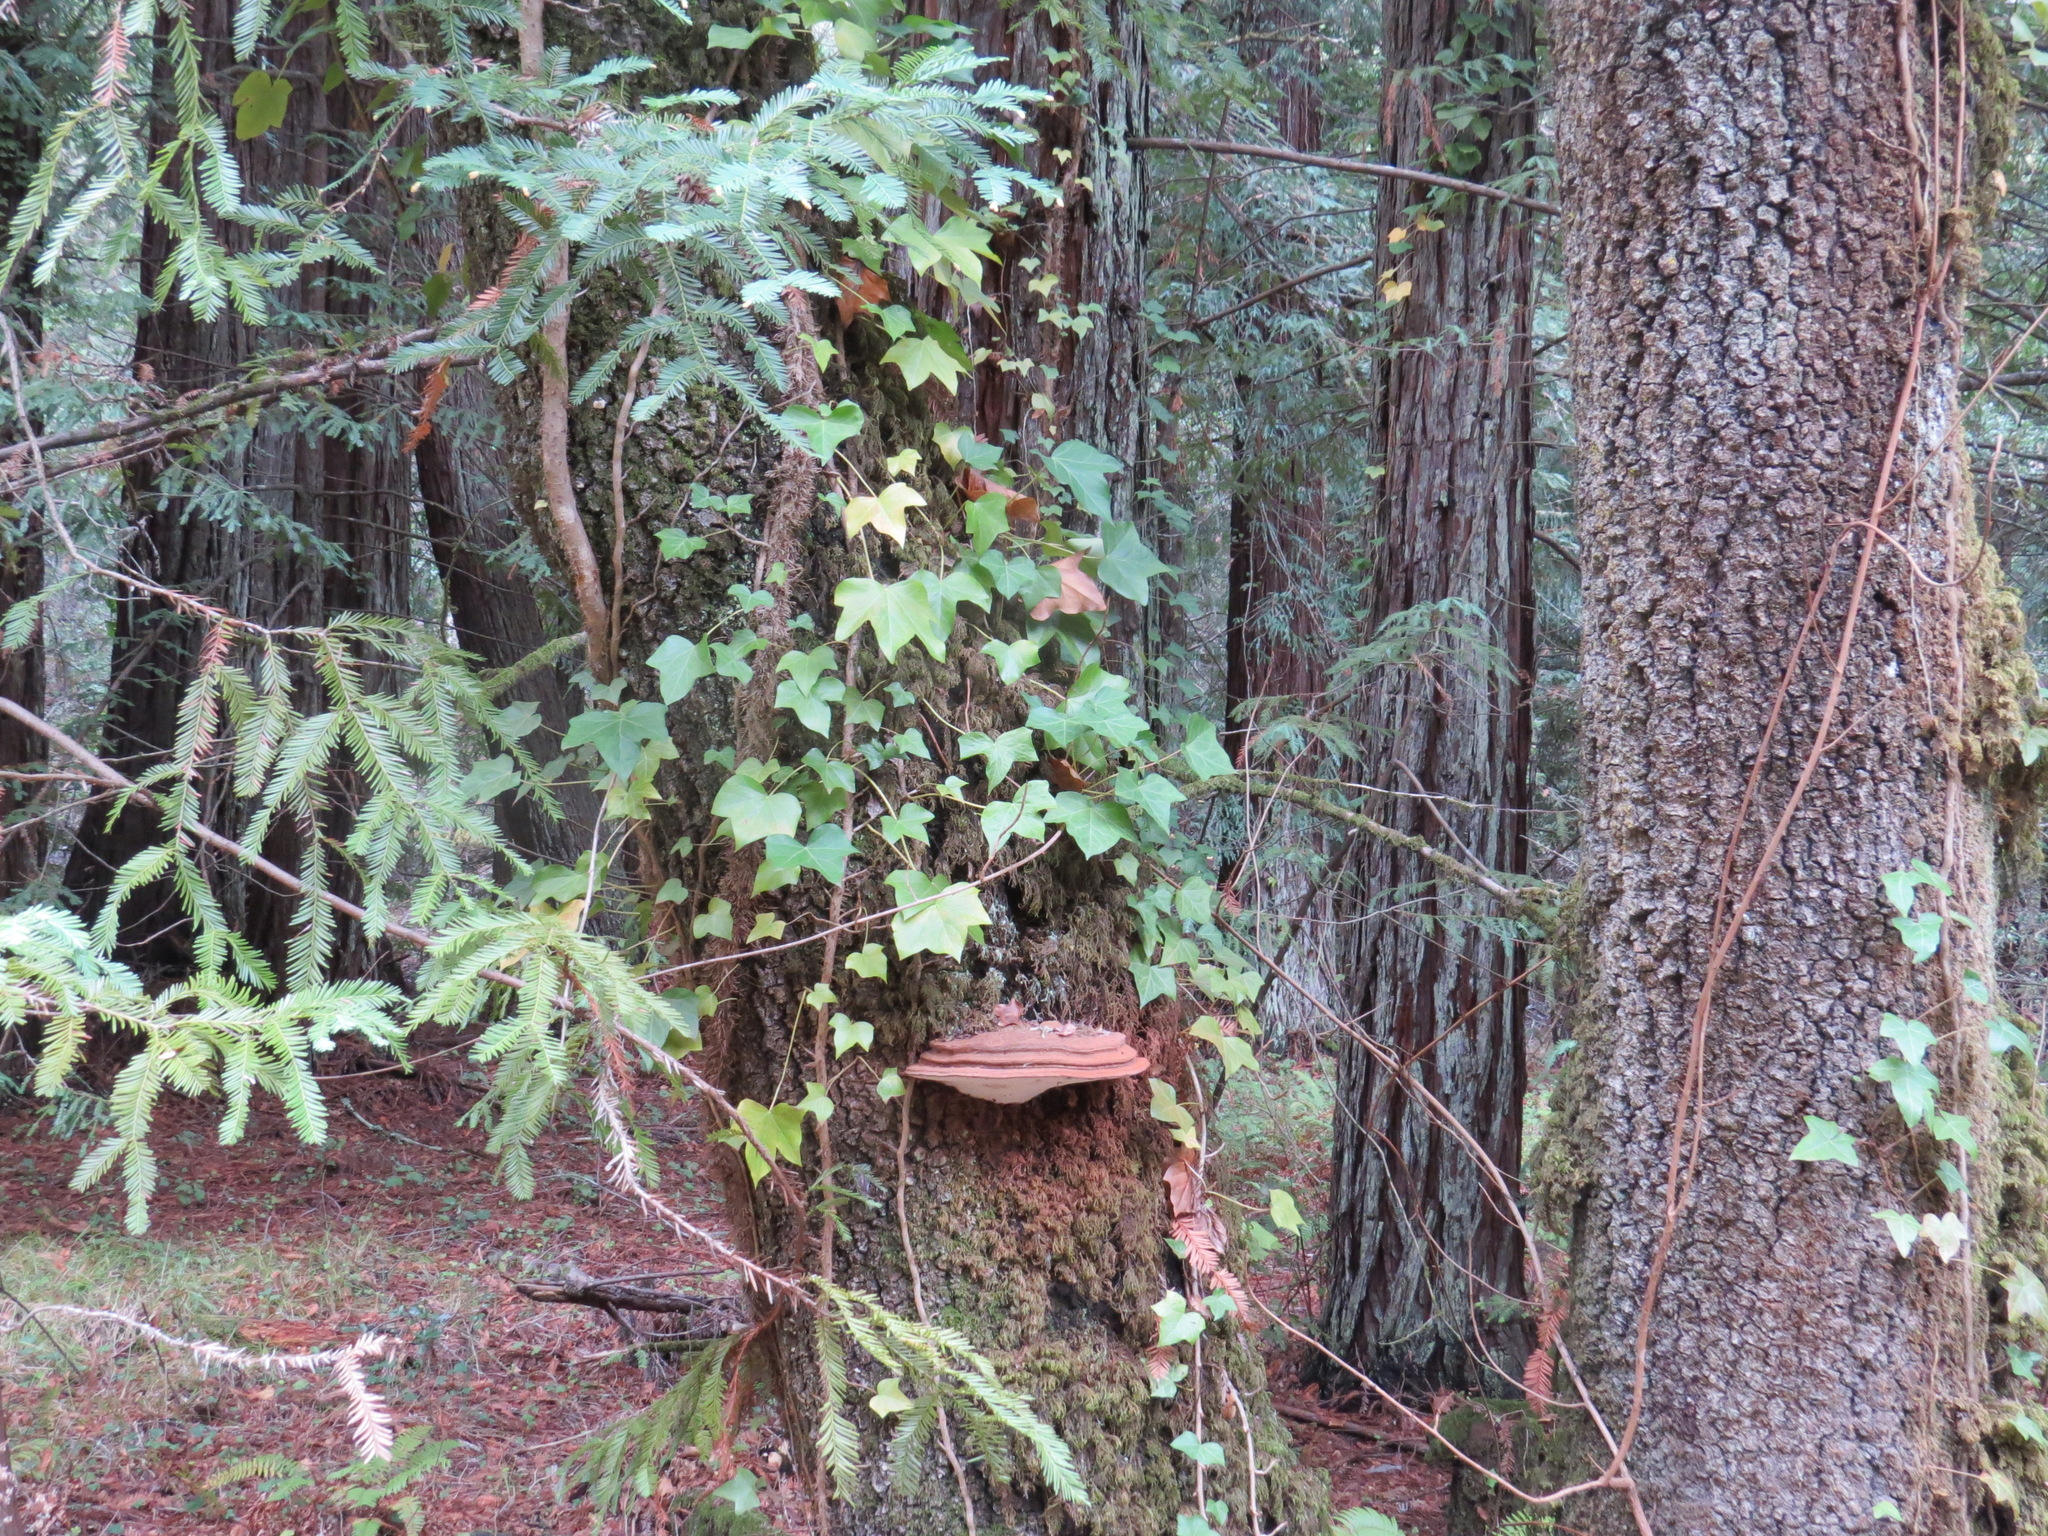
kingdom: Fungi
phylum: Basidiomycota
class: Agaricomycetes
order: Polyporales
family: Polyporaceae
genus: Ganoderma
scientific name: Ganoderma brownii
